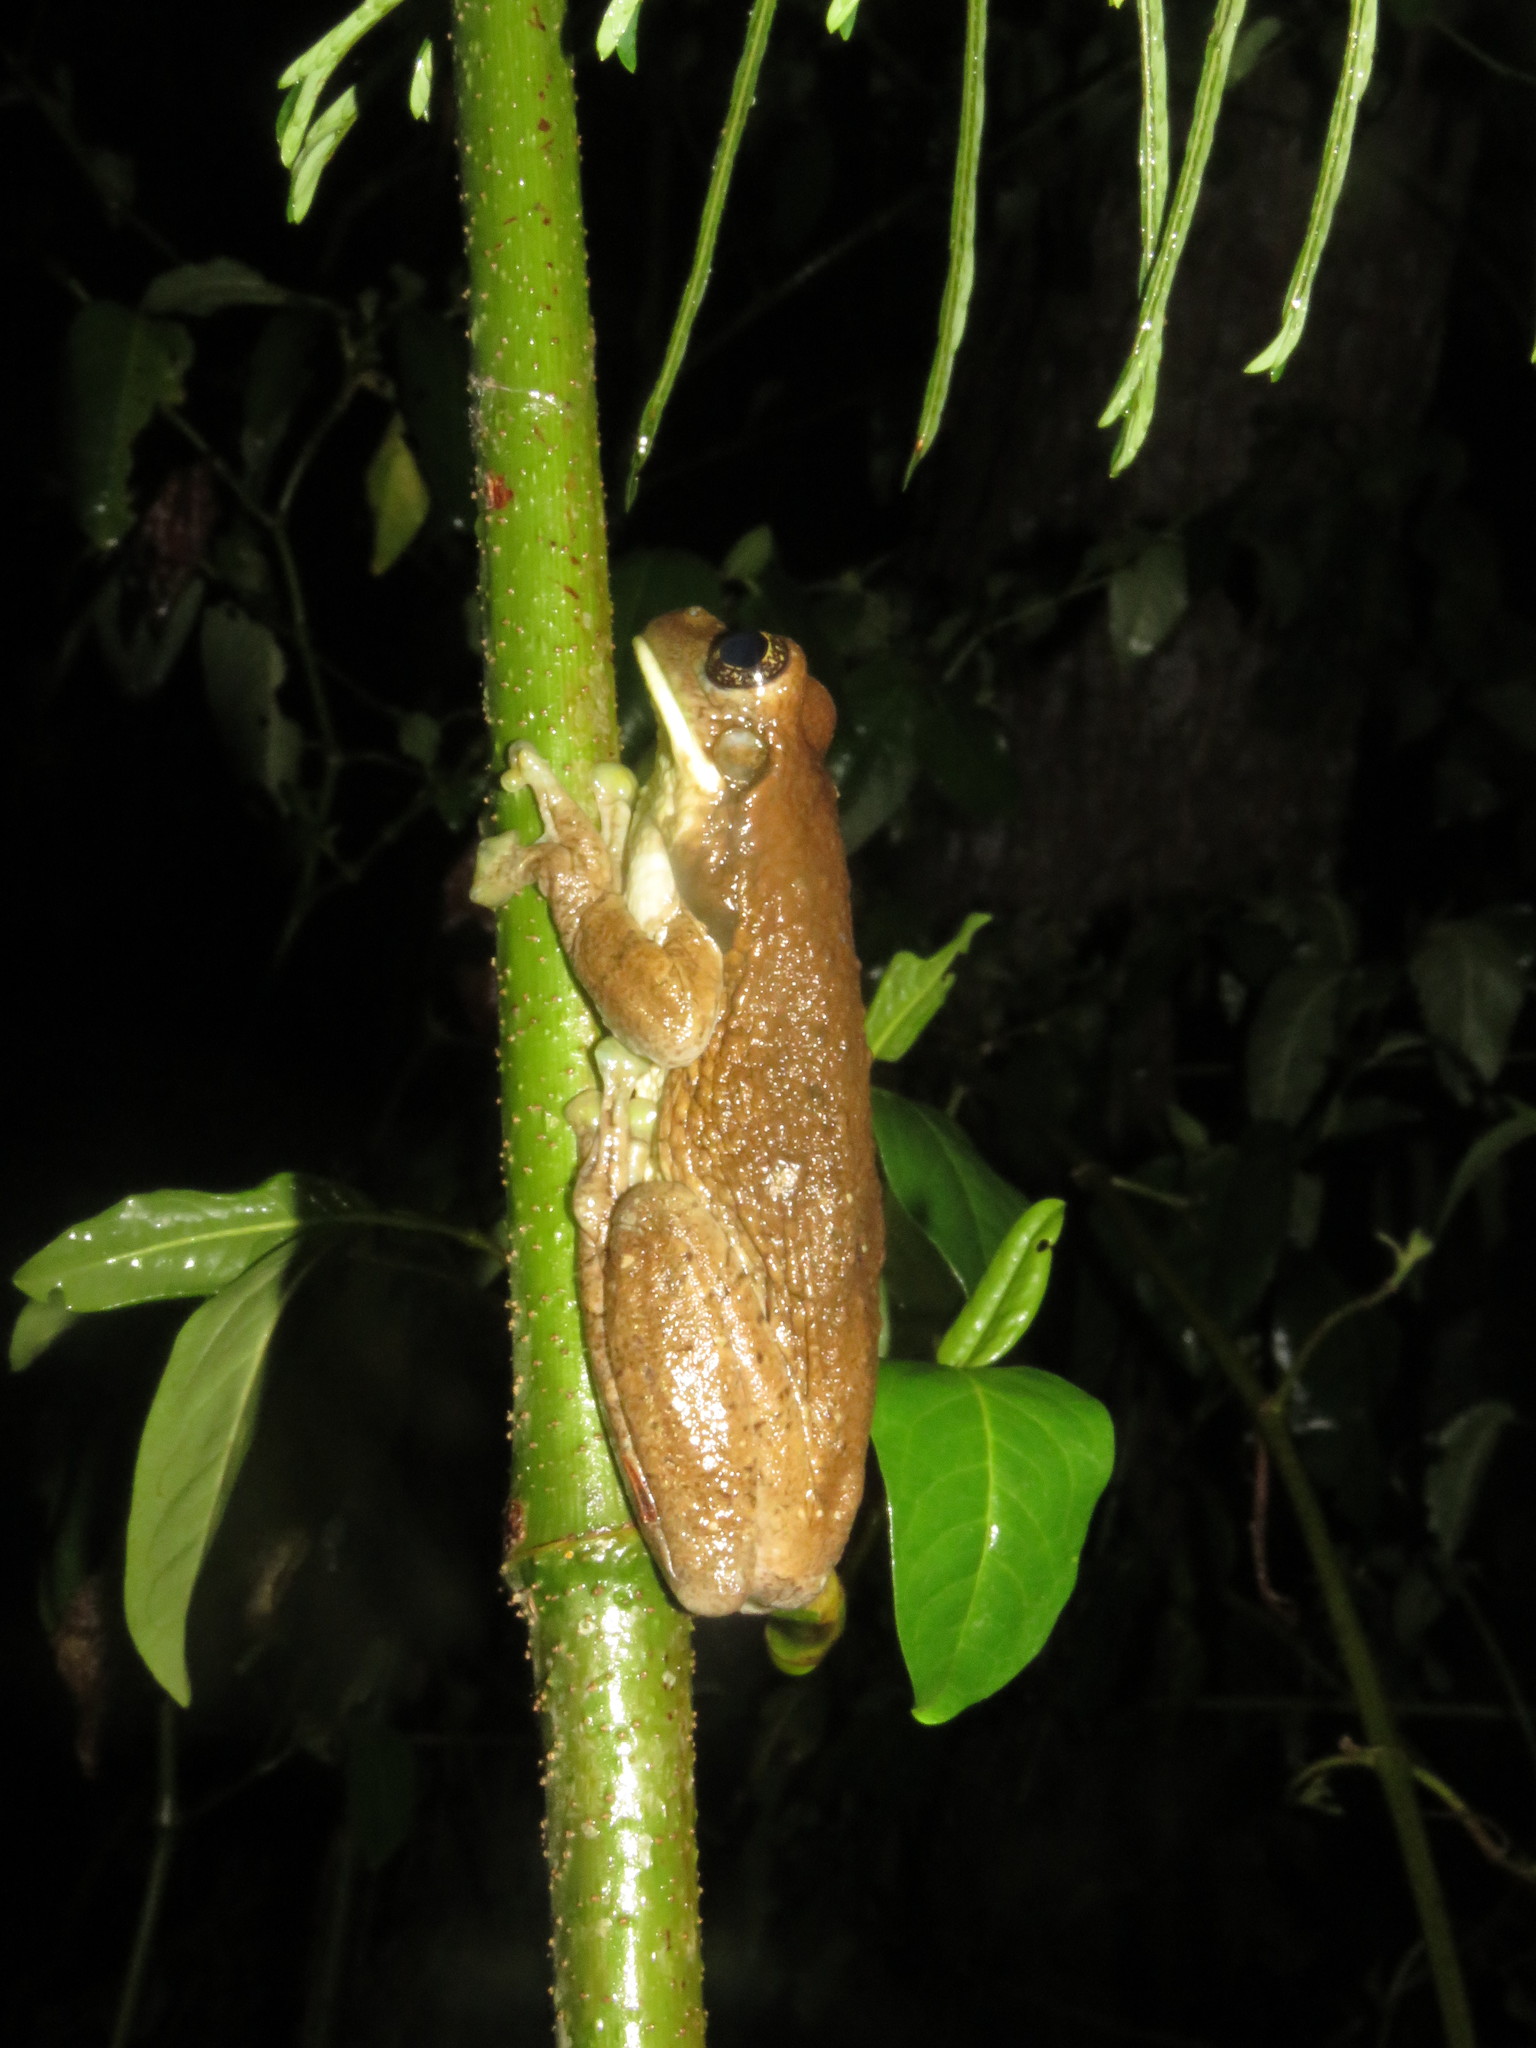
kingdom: Animalia
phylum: Chordata
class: Amphibia
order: Anura
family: Hylidae
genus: Trachycephalus
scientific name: Trachycephalus typhonius
